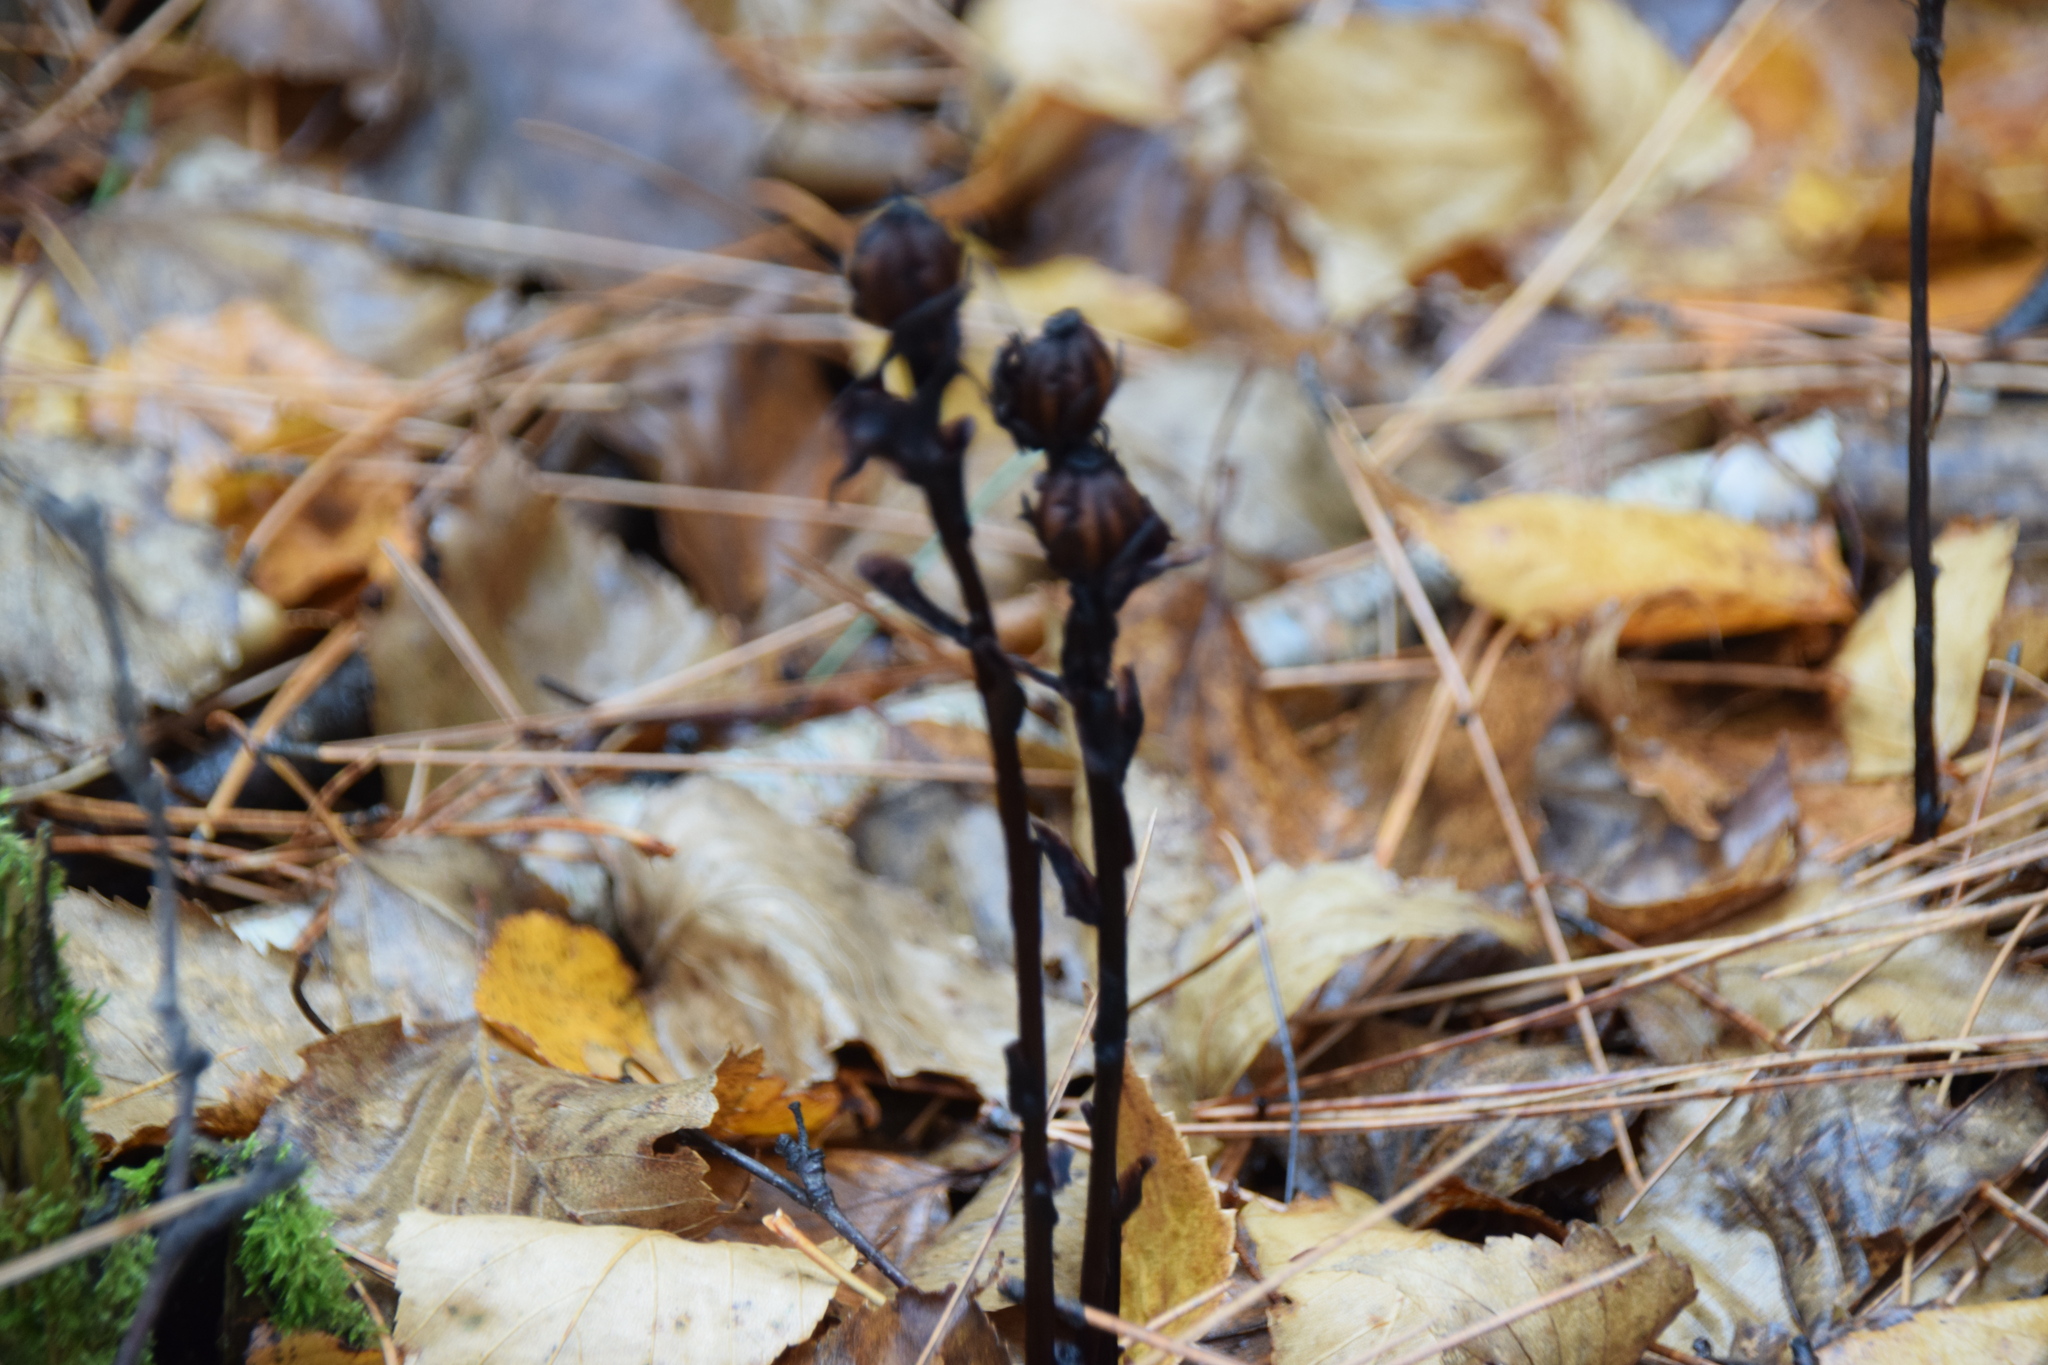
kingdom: Plantae
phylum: Tracheophyta
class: Magnoliopsida
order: Ericales
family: Ericaceae
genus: Monotropa
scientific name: Monotropa uniflora
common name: Convulsion root
